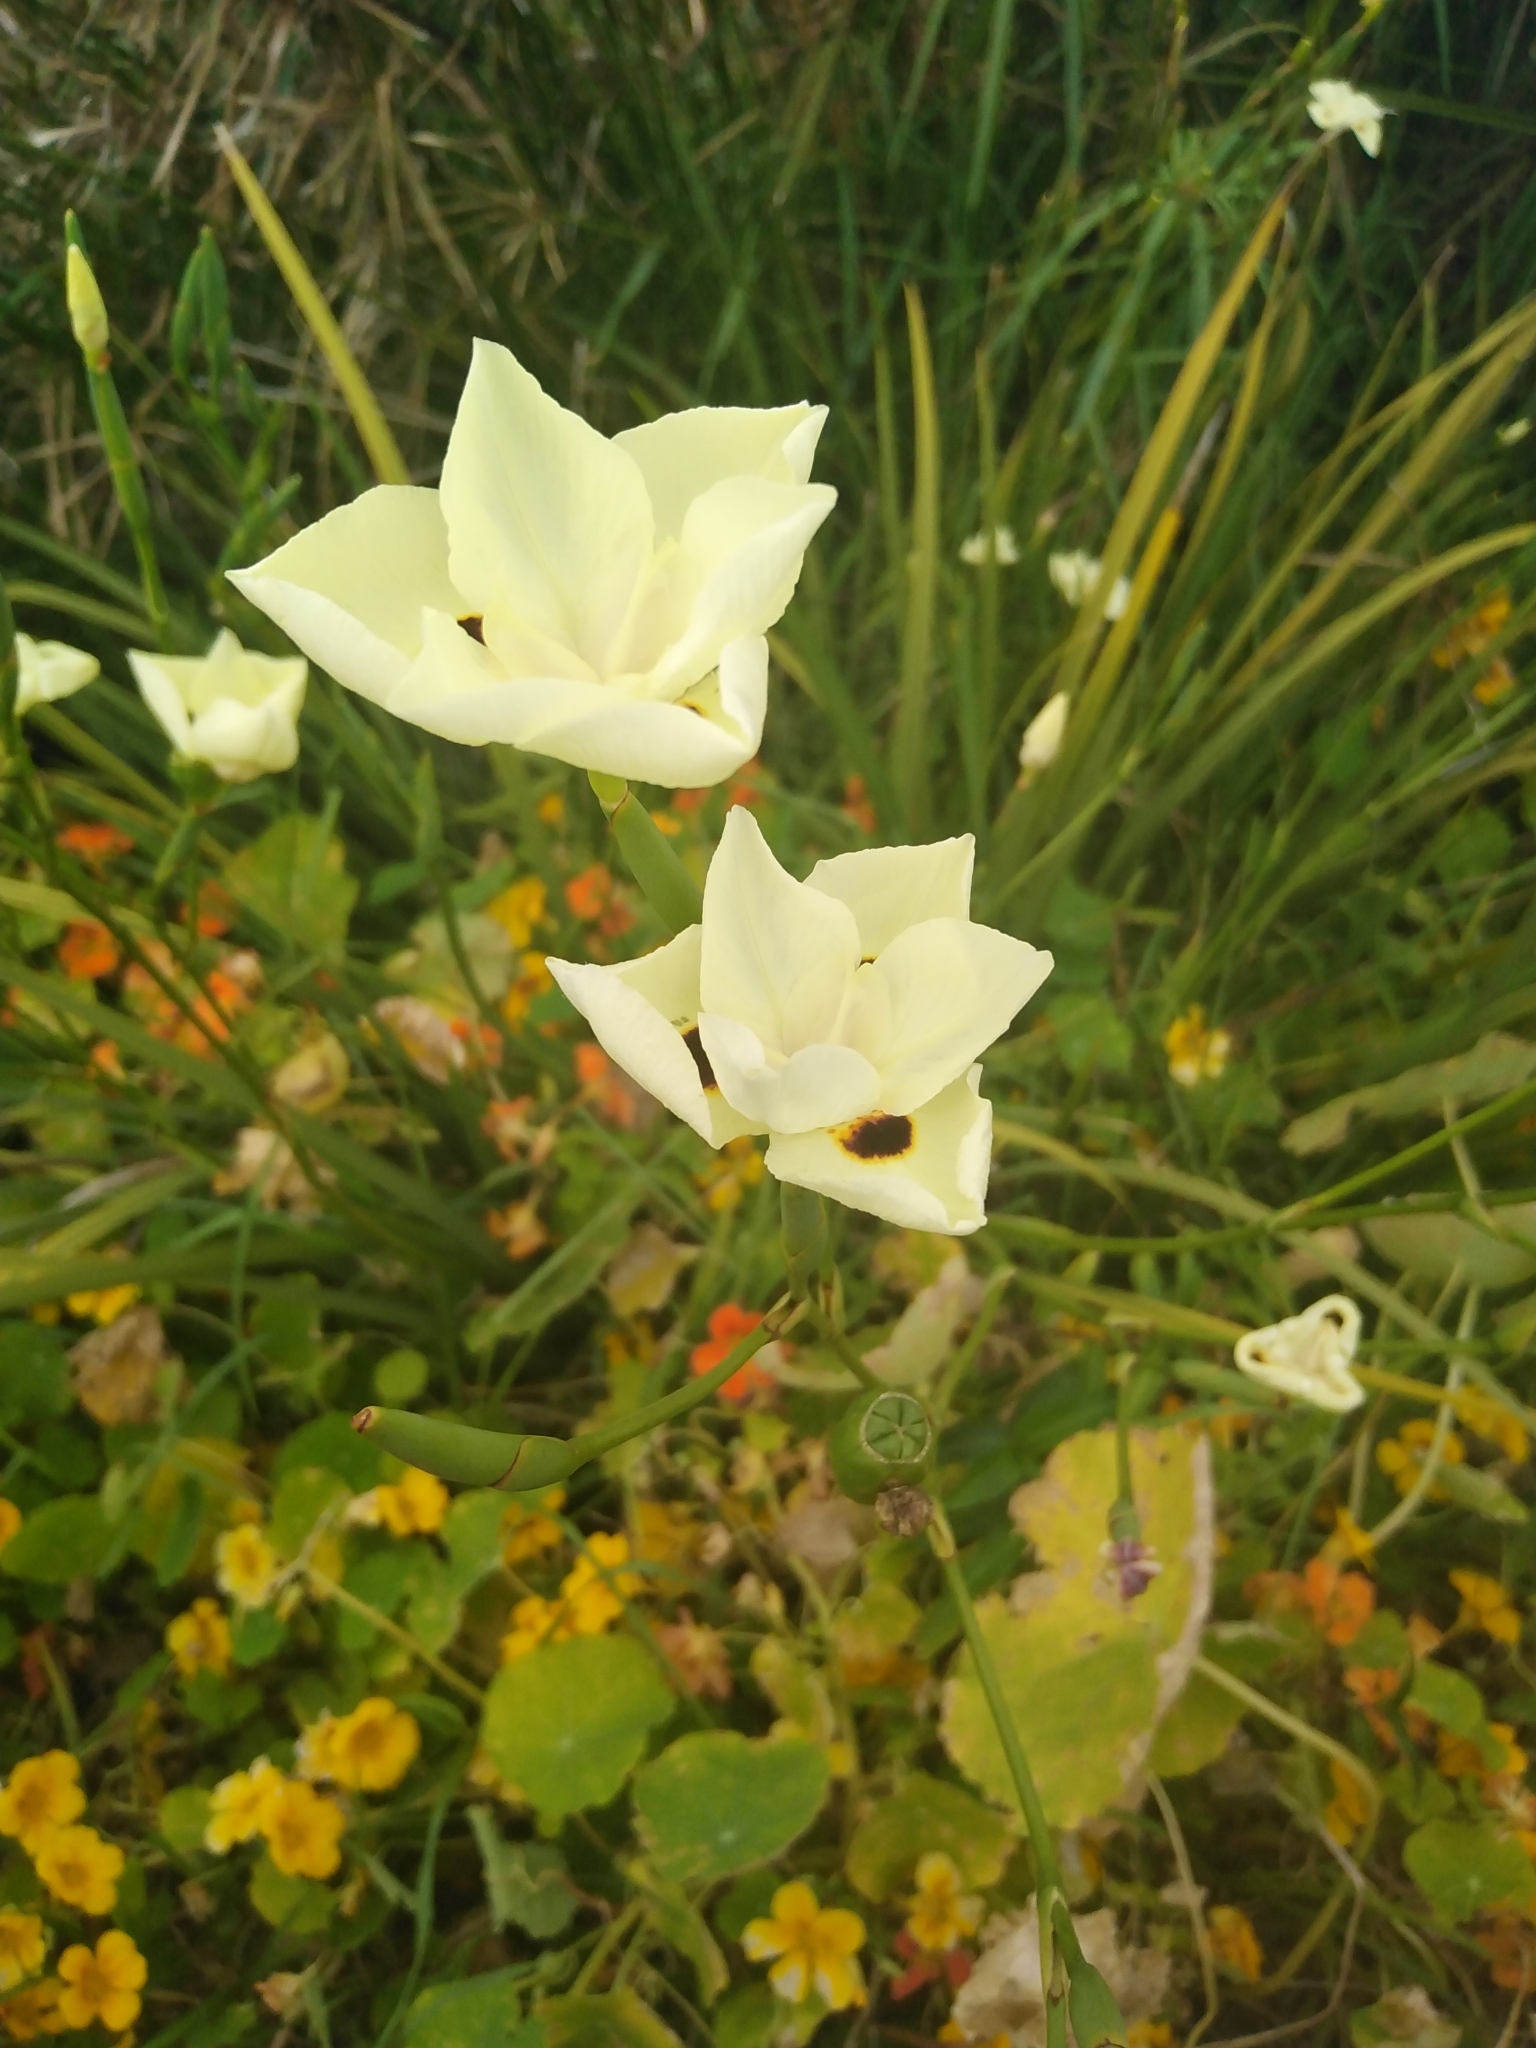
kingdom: Plantae
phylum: Tracheophyta
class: Liliopsida
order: Asparagales
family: Iridaceae
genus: Dietes
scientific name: Dietes bicolor
